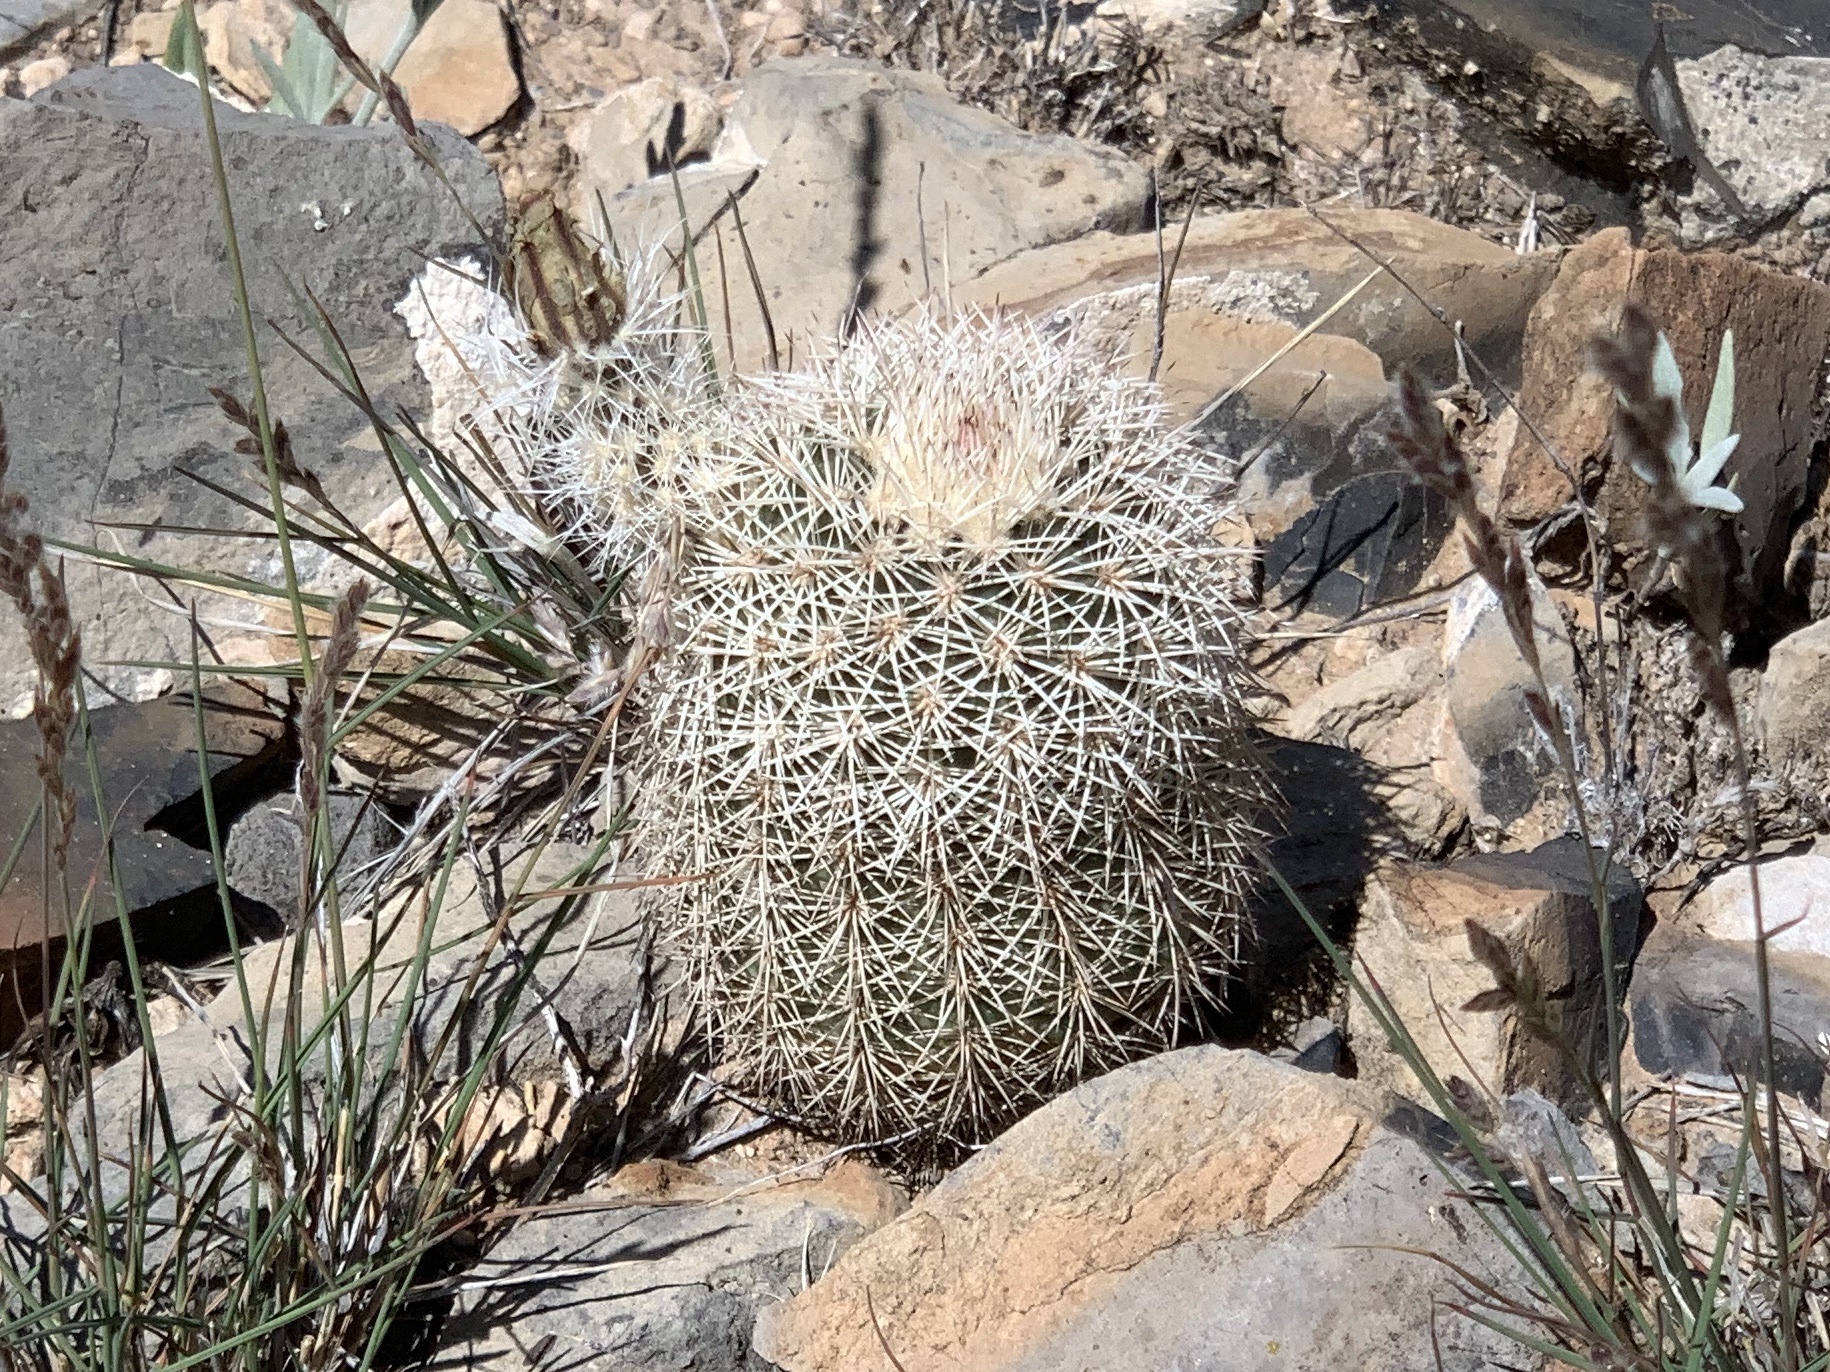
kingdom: Plantae
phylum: Tracheophyta
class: Magnoliopsida
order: Caryophyllales
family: Cactaceae
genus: Echinocereus
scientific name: Echinocereus dasyacanthus
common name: Spiny hedgehog cactus
